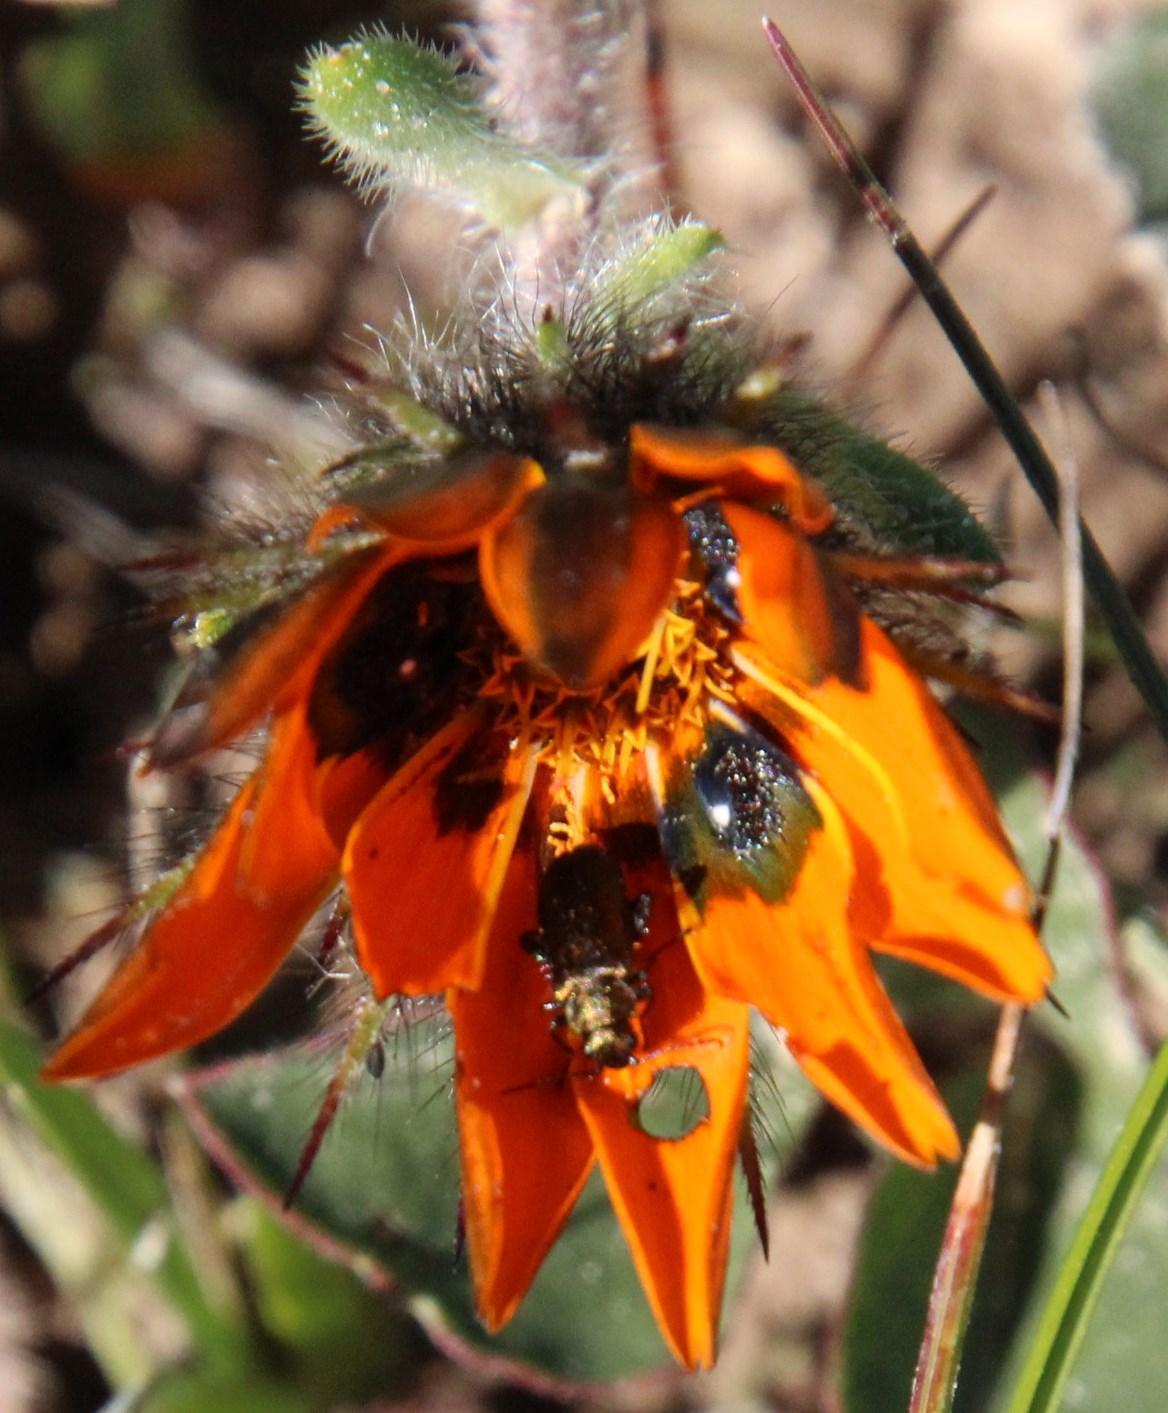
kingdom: Plantae
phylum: Tracheophyta
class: Magnoliopsida
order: Asterales
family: Asteraceae
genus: Gorteria
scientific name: Gorteria diffusa
